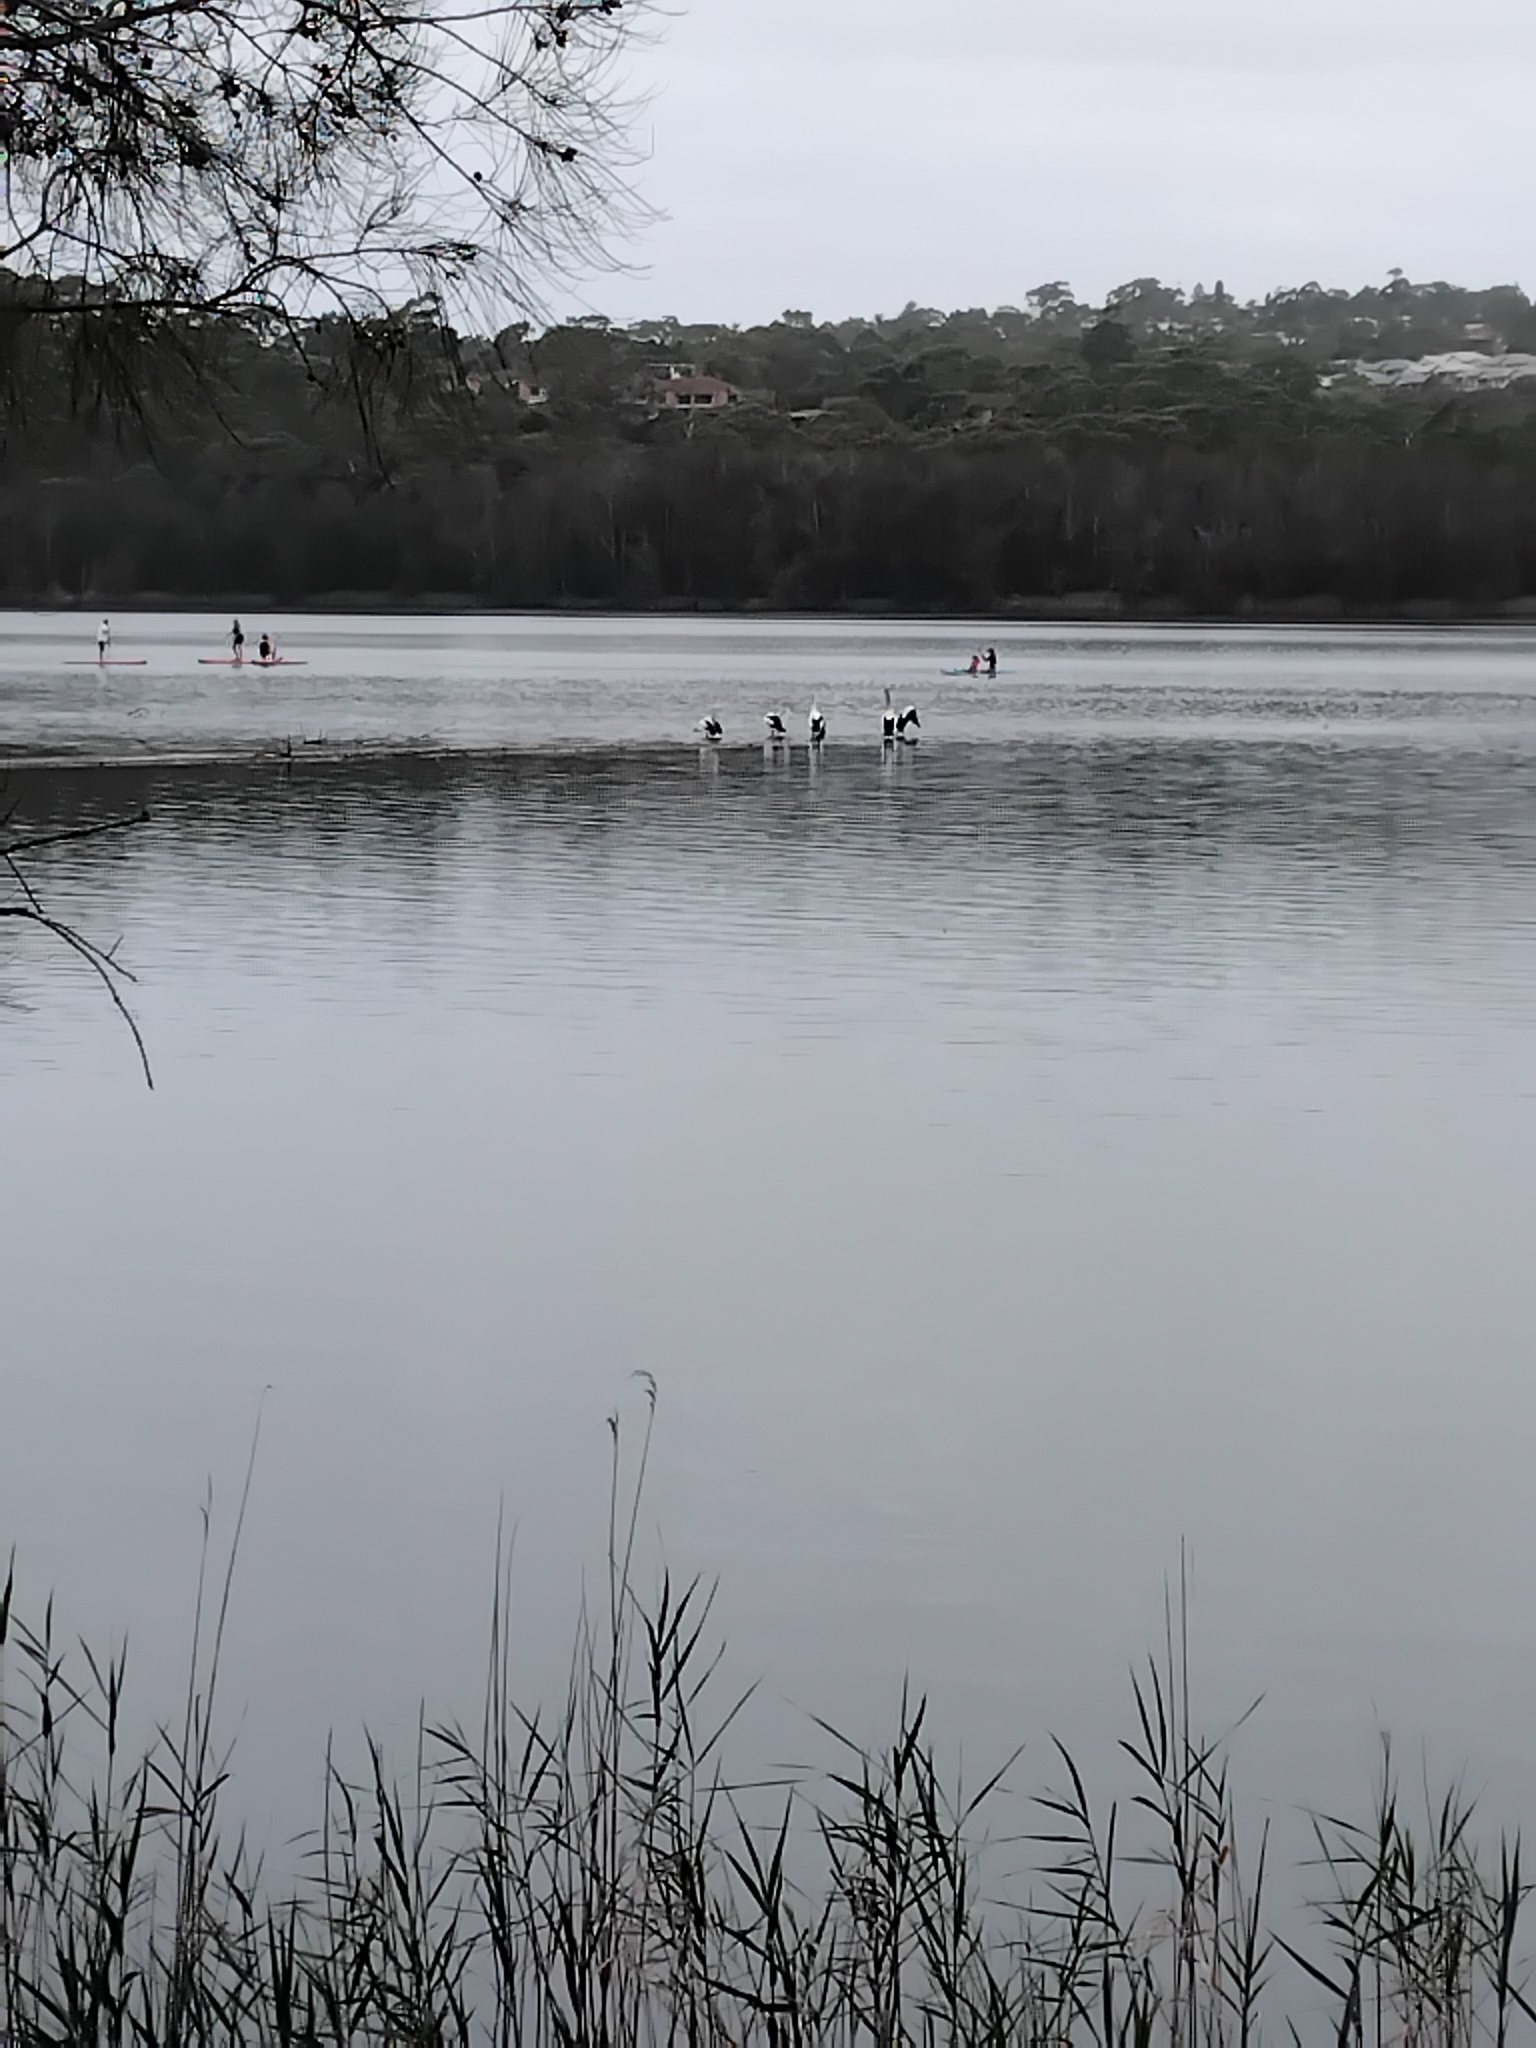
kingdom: Animalia
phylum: Chordata
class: Aves
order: Pelecaniformes
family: Pelecanidae
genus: Pelecanus
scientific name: Pelecanus conspicillatus
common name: Australian pelican
